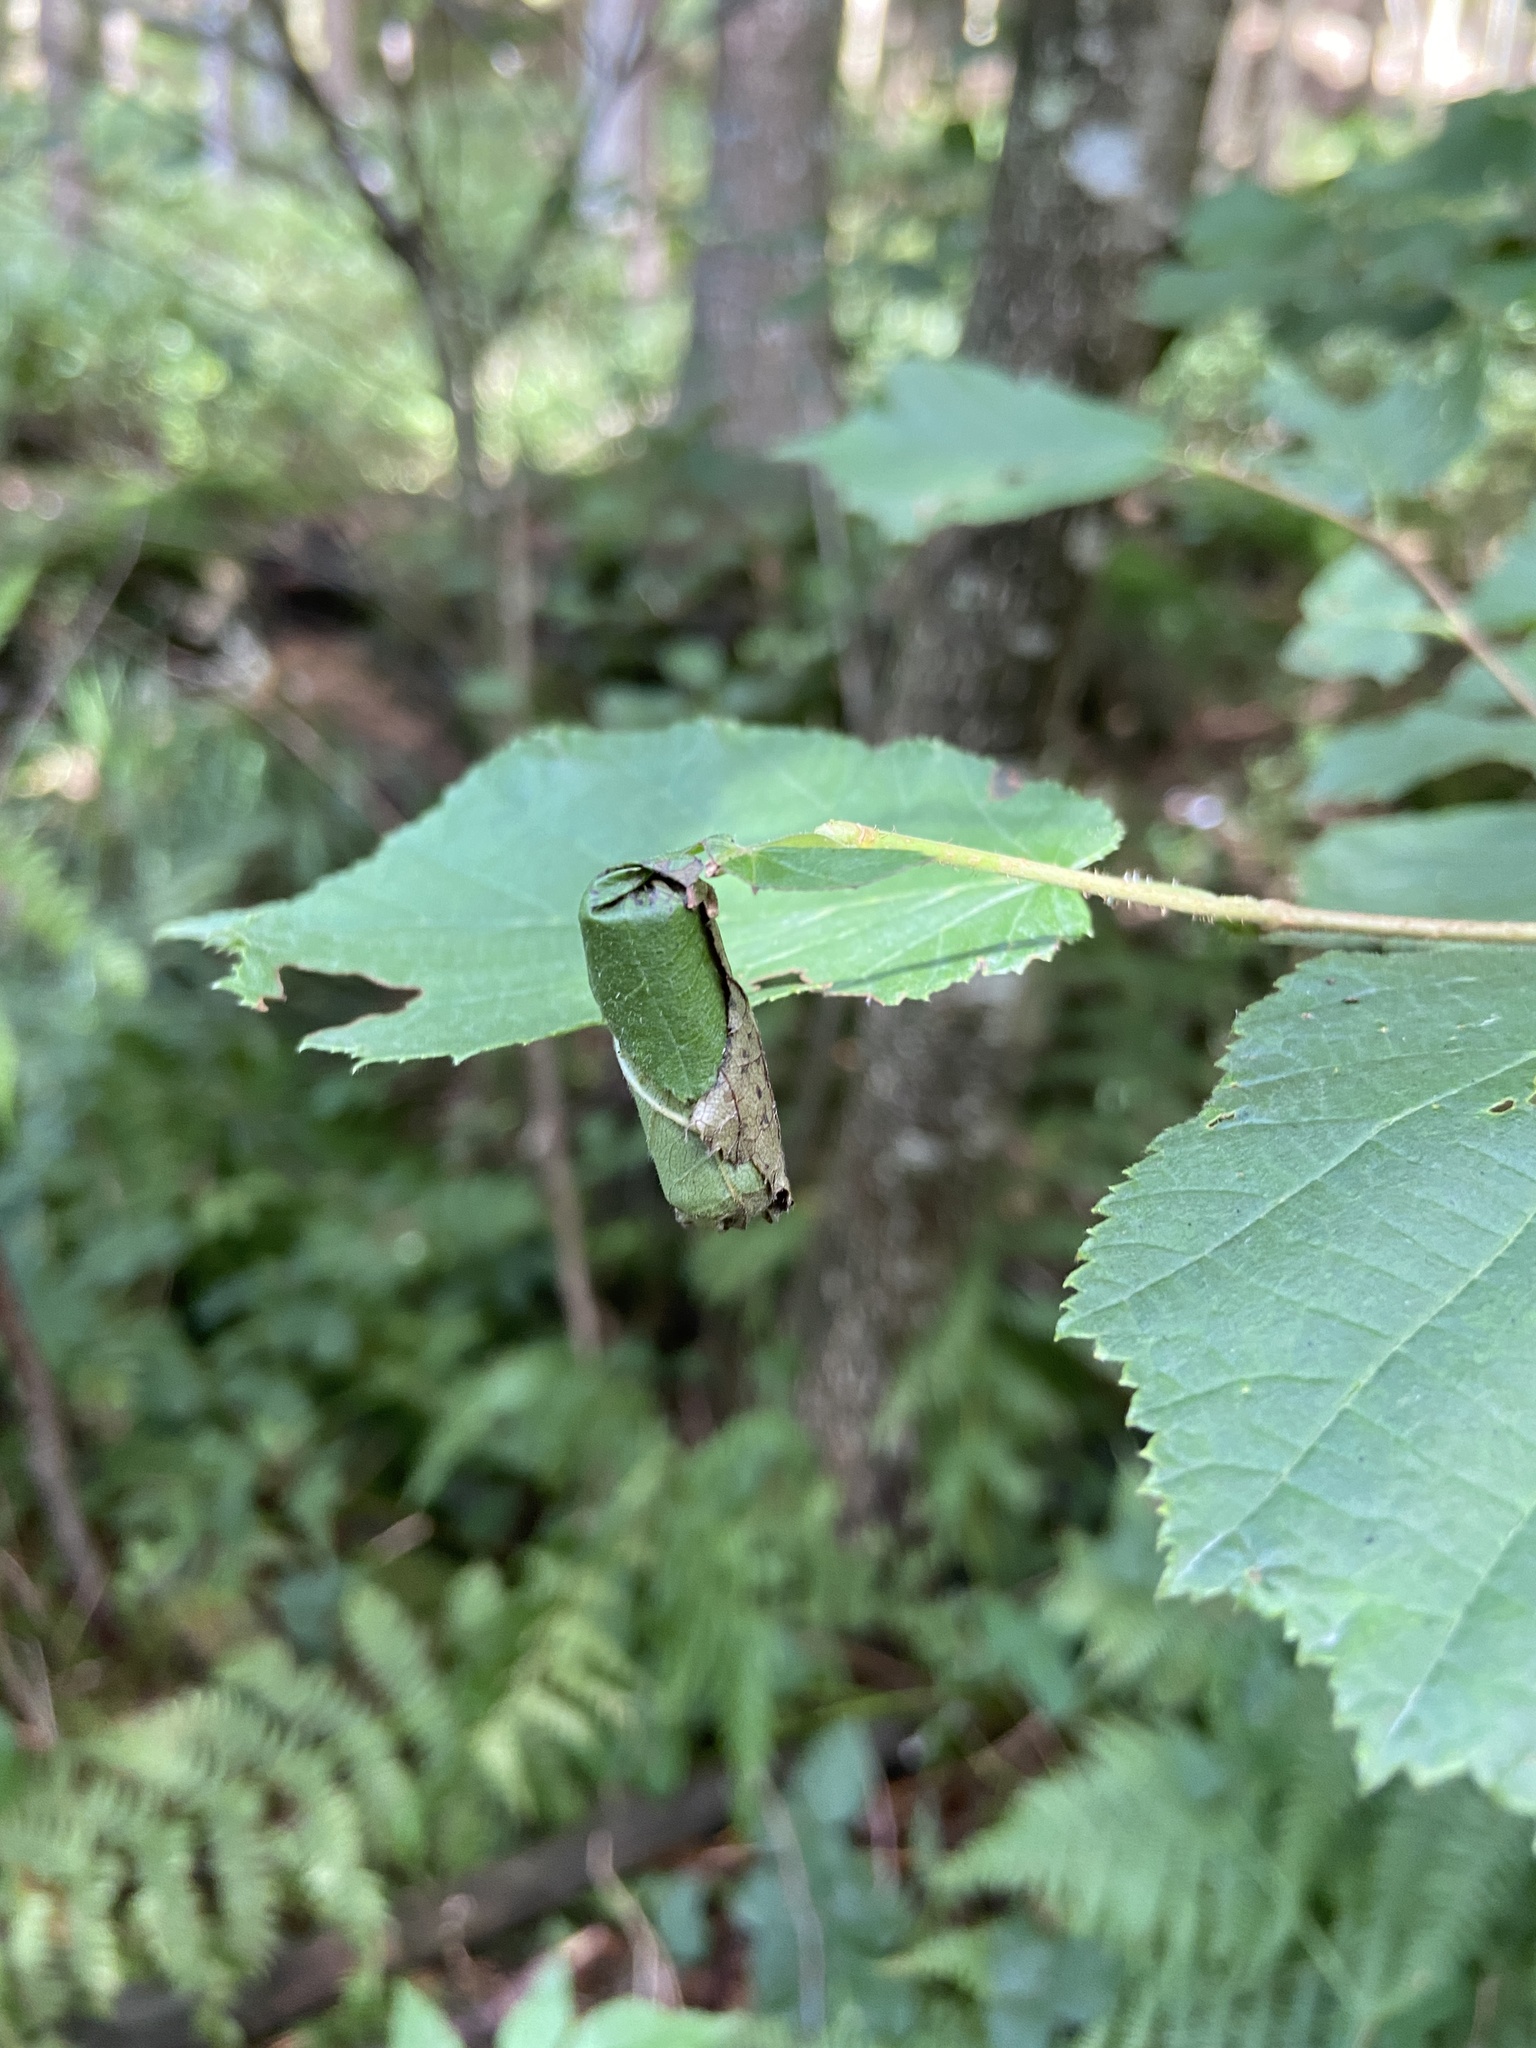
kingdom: Animalia
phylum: Arthropoda
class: Insecta
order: Coleoptera
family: Attelabidae
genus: Apoderus
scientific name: Apoderus coryli
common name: Hazel leaf roller
